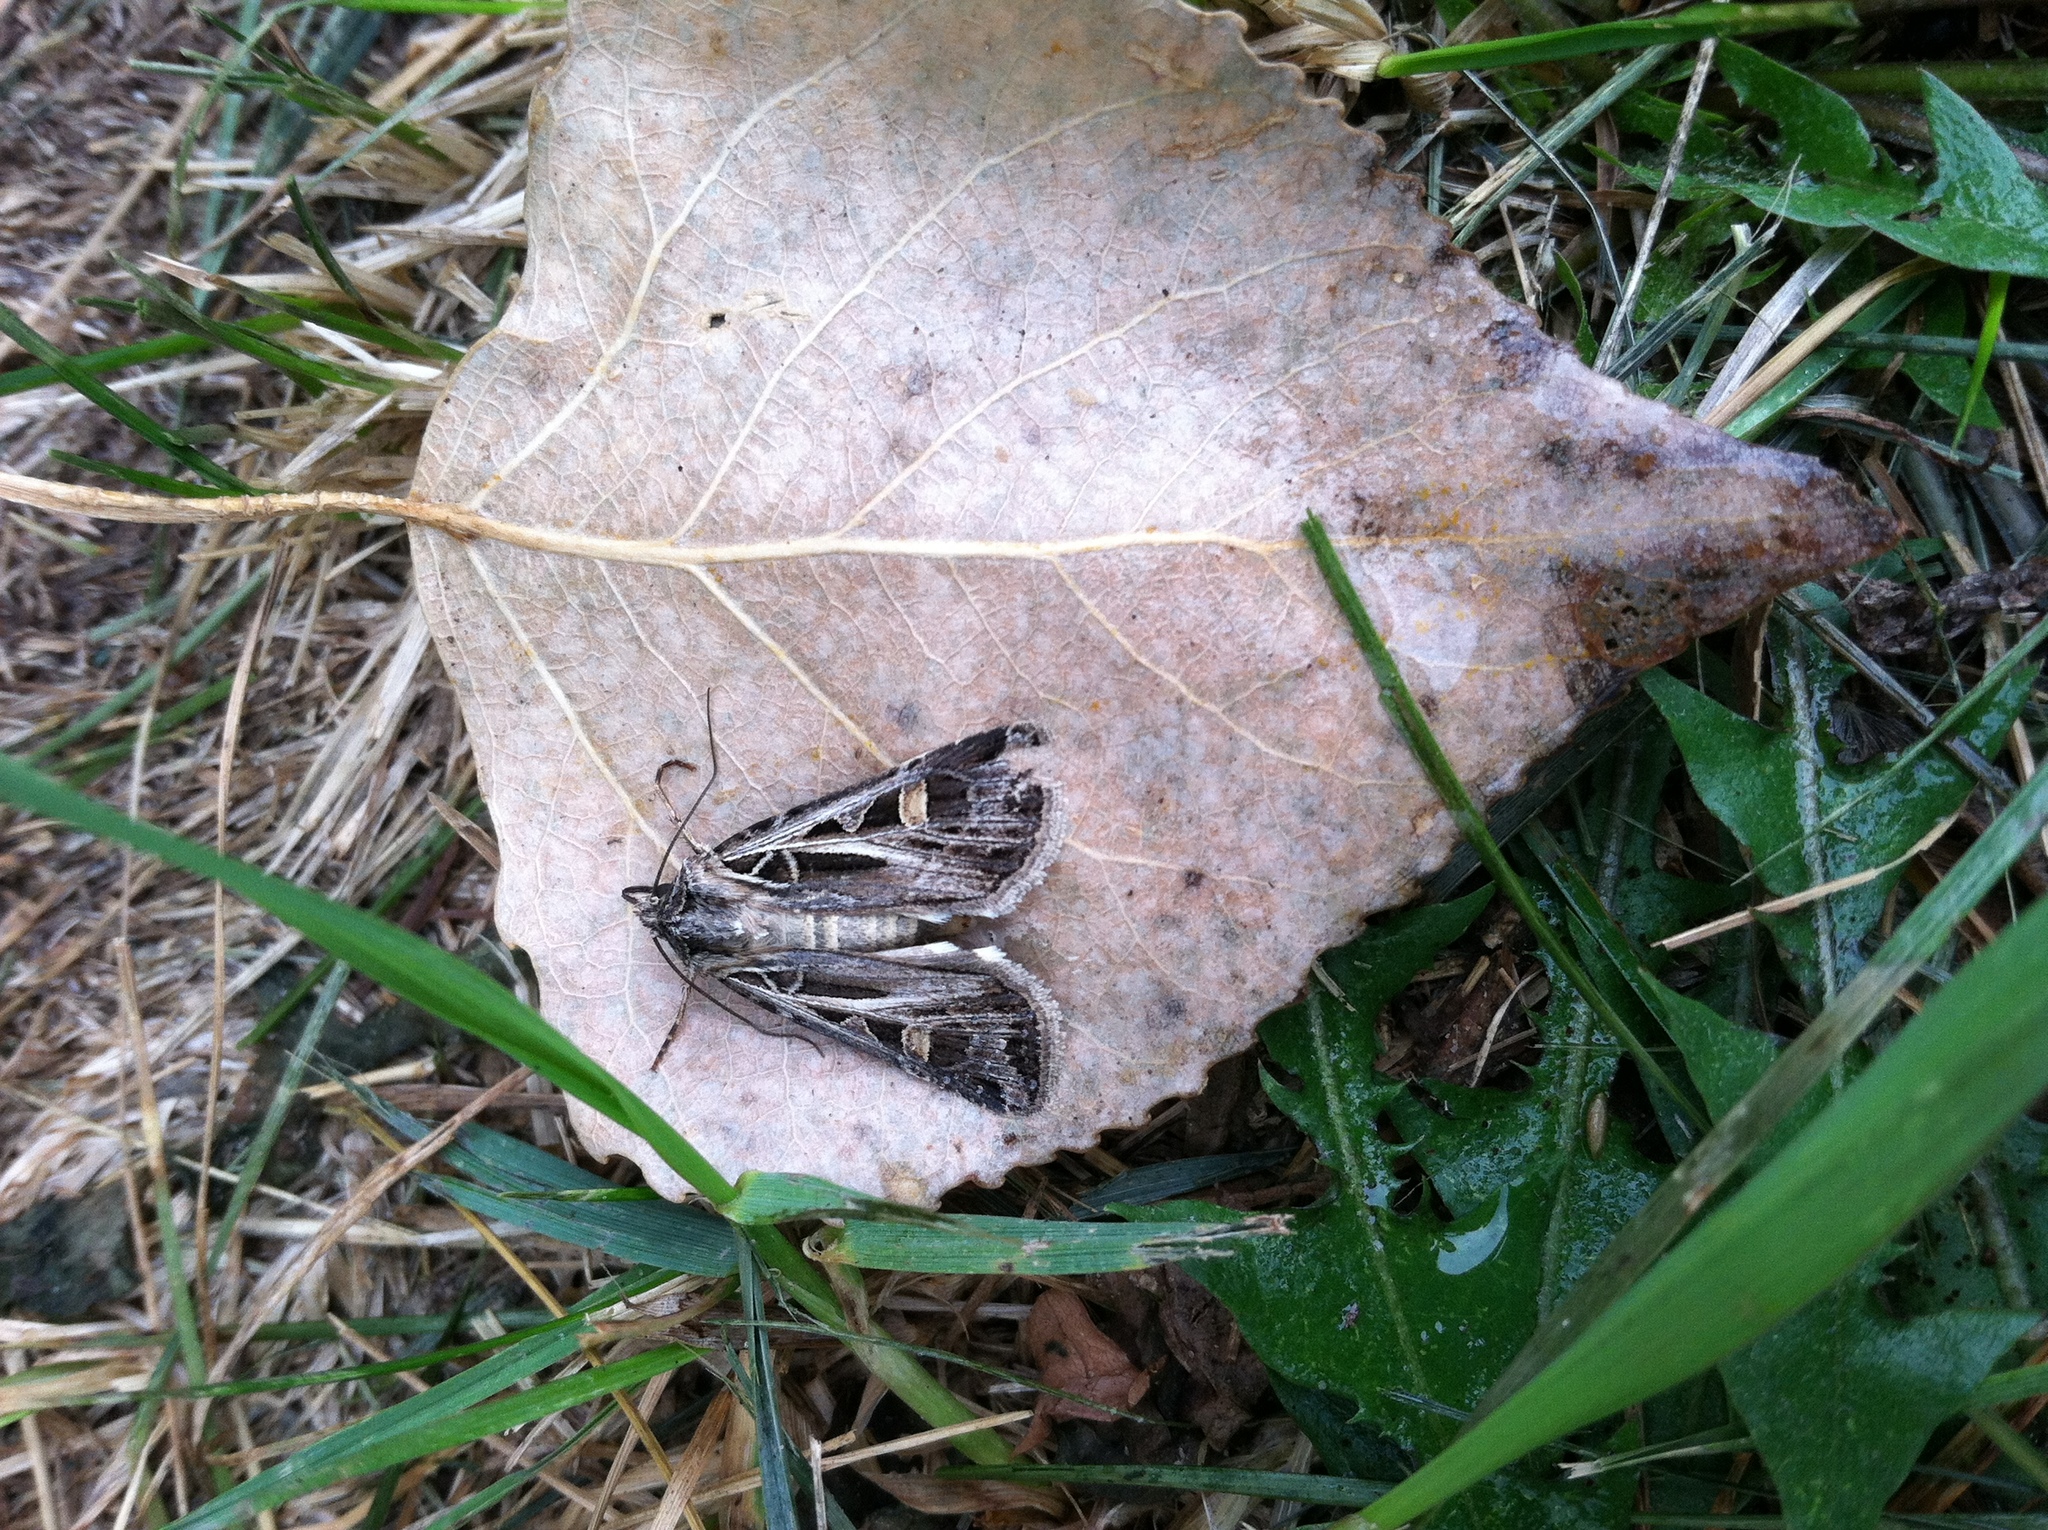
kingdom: Animalia
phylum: Arthropoda
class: Insecta
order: Lepidoptera
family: Noctuidae
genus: Feltia
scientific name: Feltia jaculifera
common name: Dingy cutworm moth
